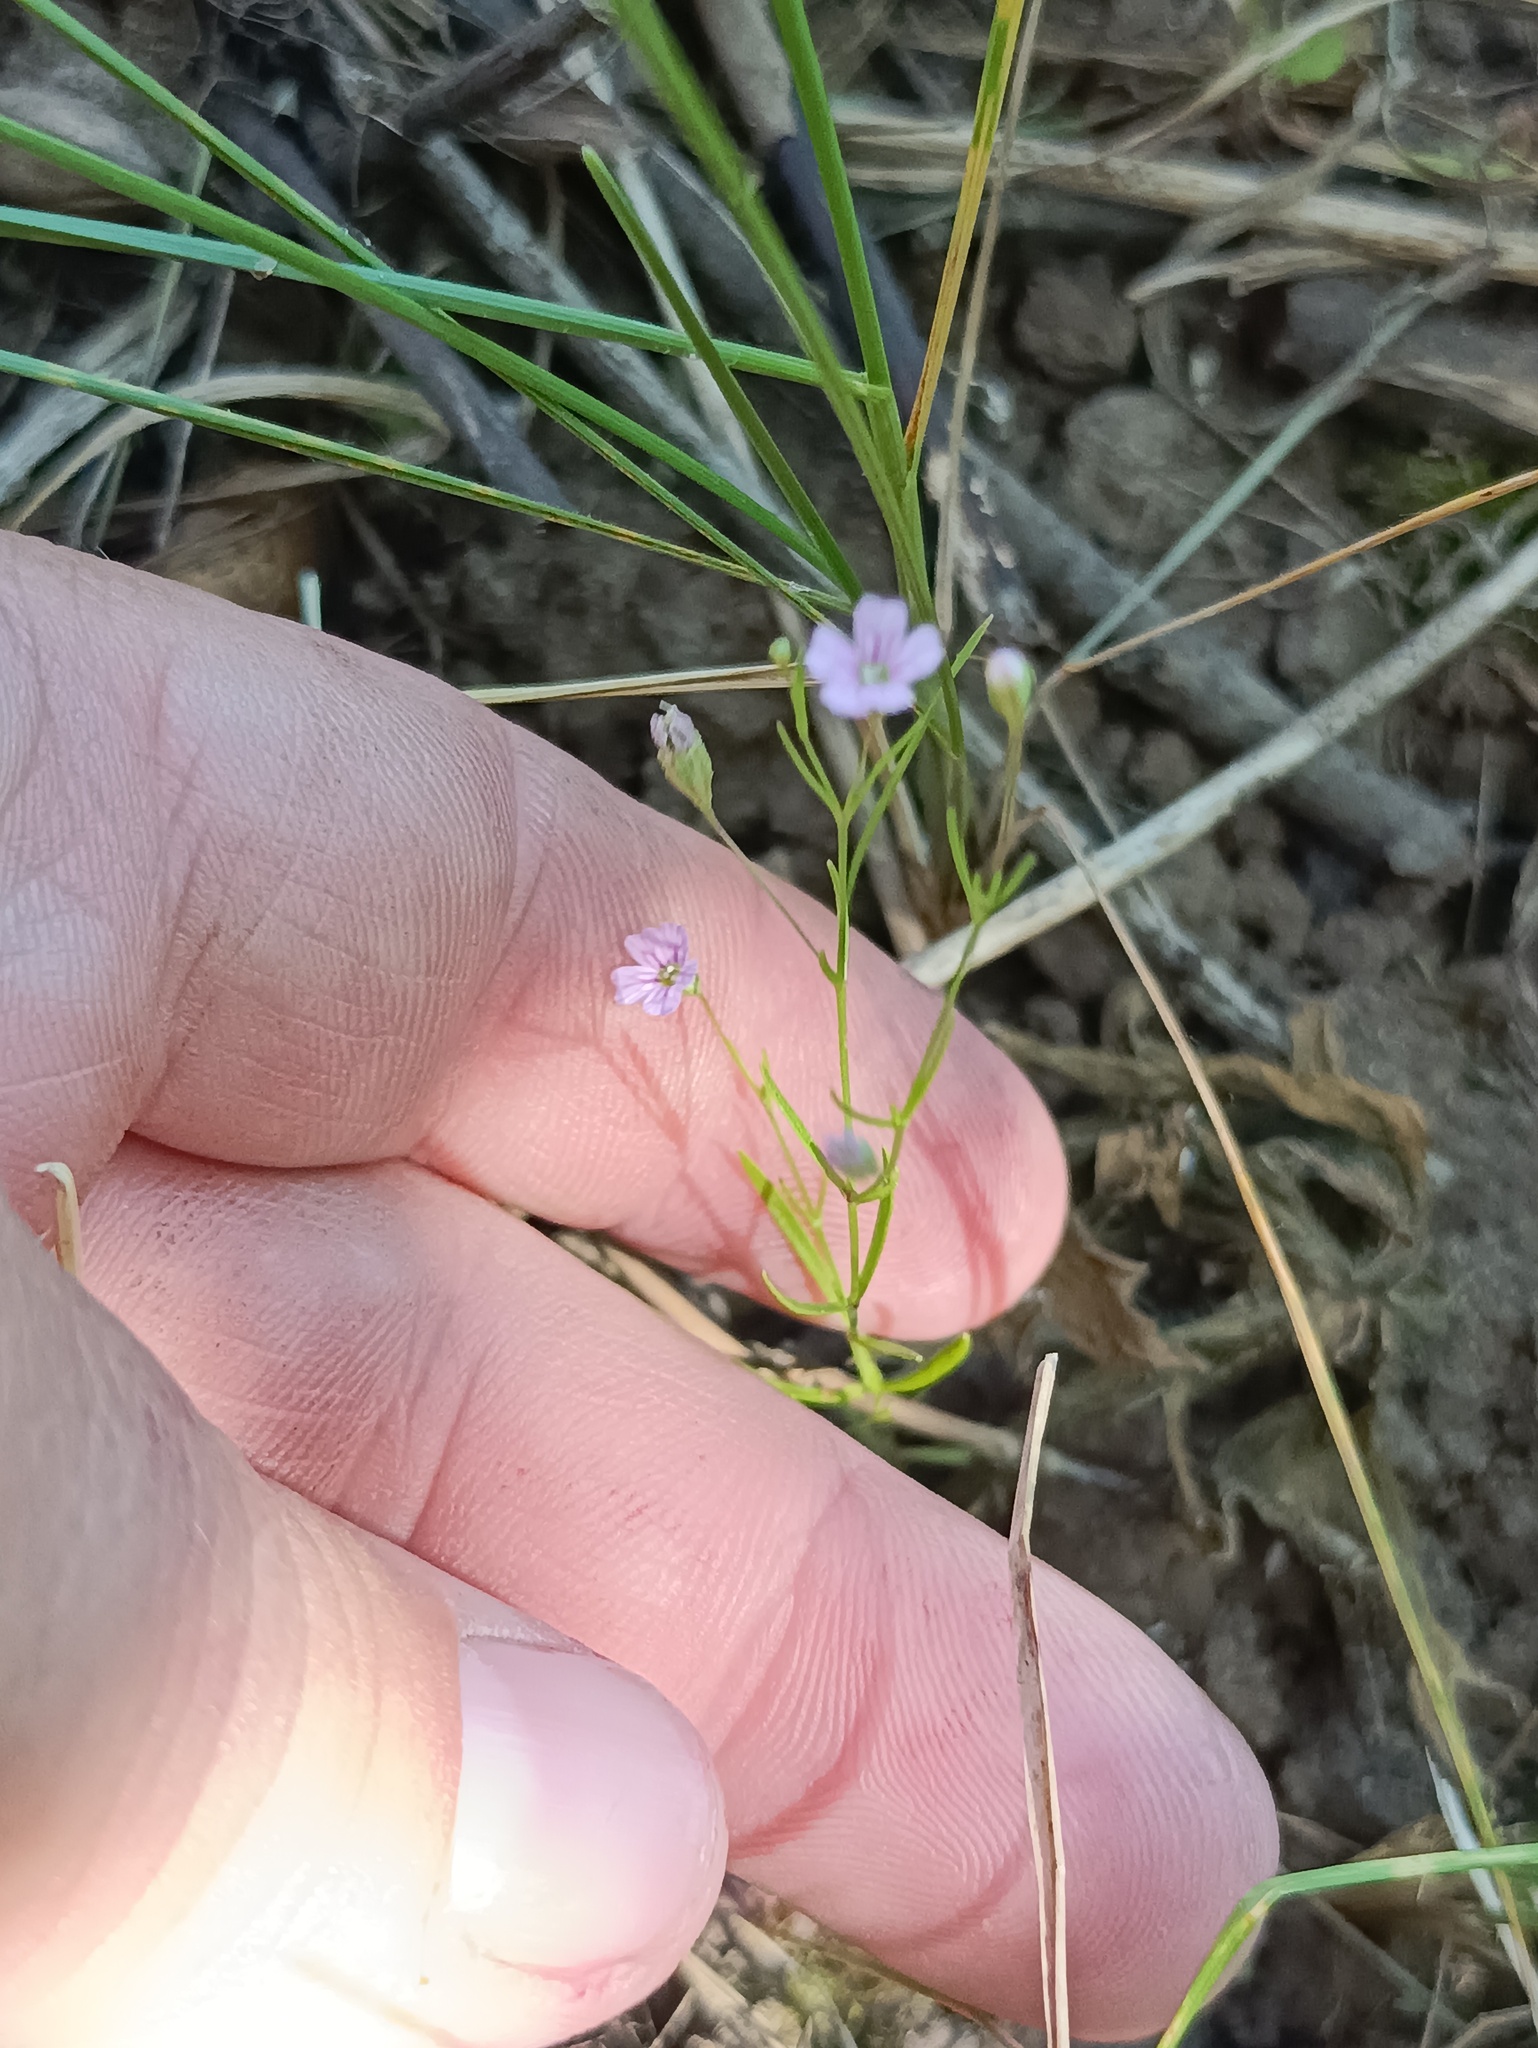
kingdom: Plantae
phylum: Tracheophyta
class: Magnoliopsida
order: Caryophyllales
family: Caryophyllaceae
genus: Psammophiliella
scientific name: Psammophiliella muralis
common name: Cushion baby's-breath
